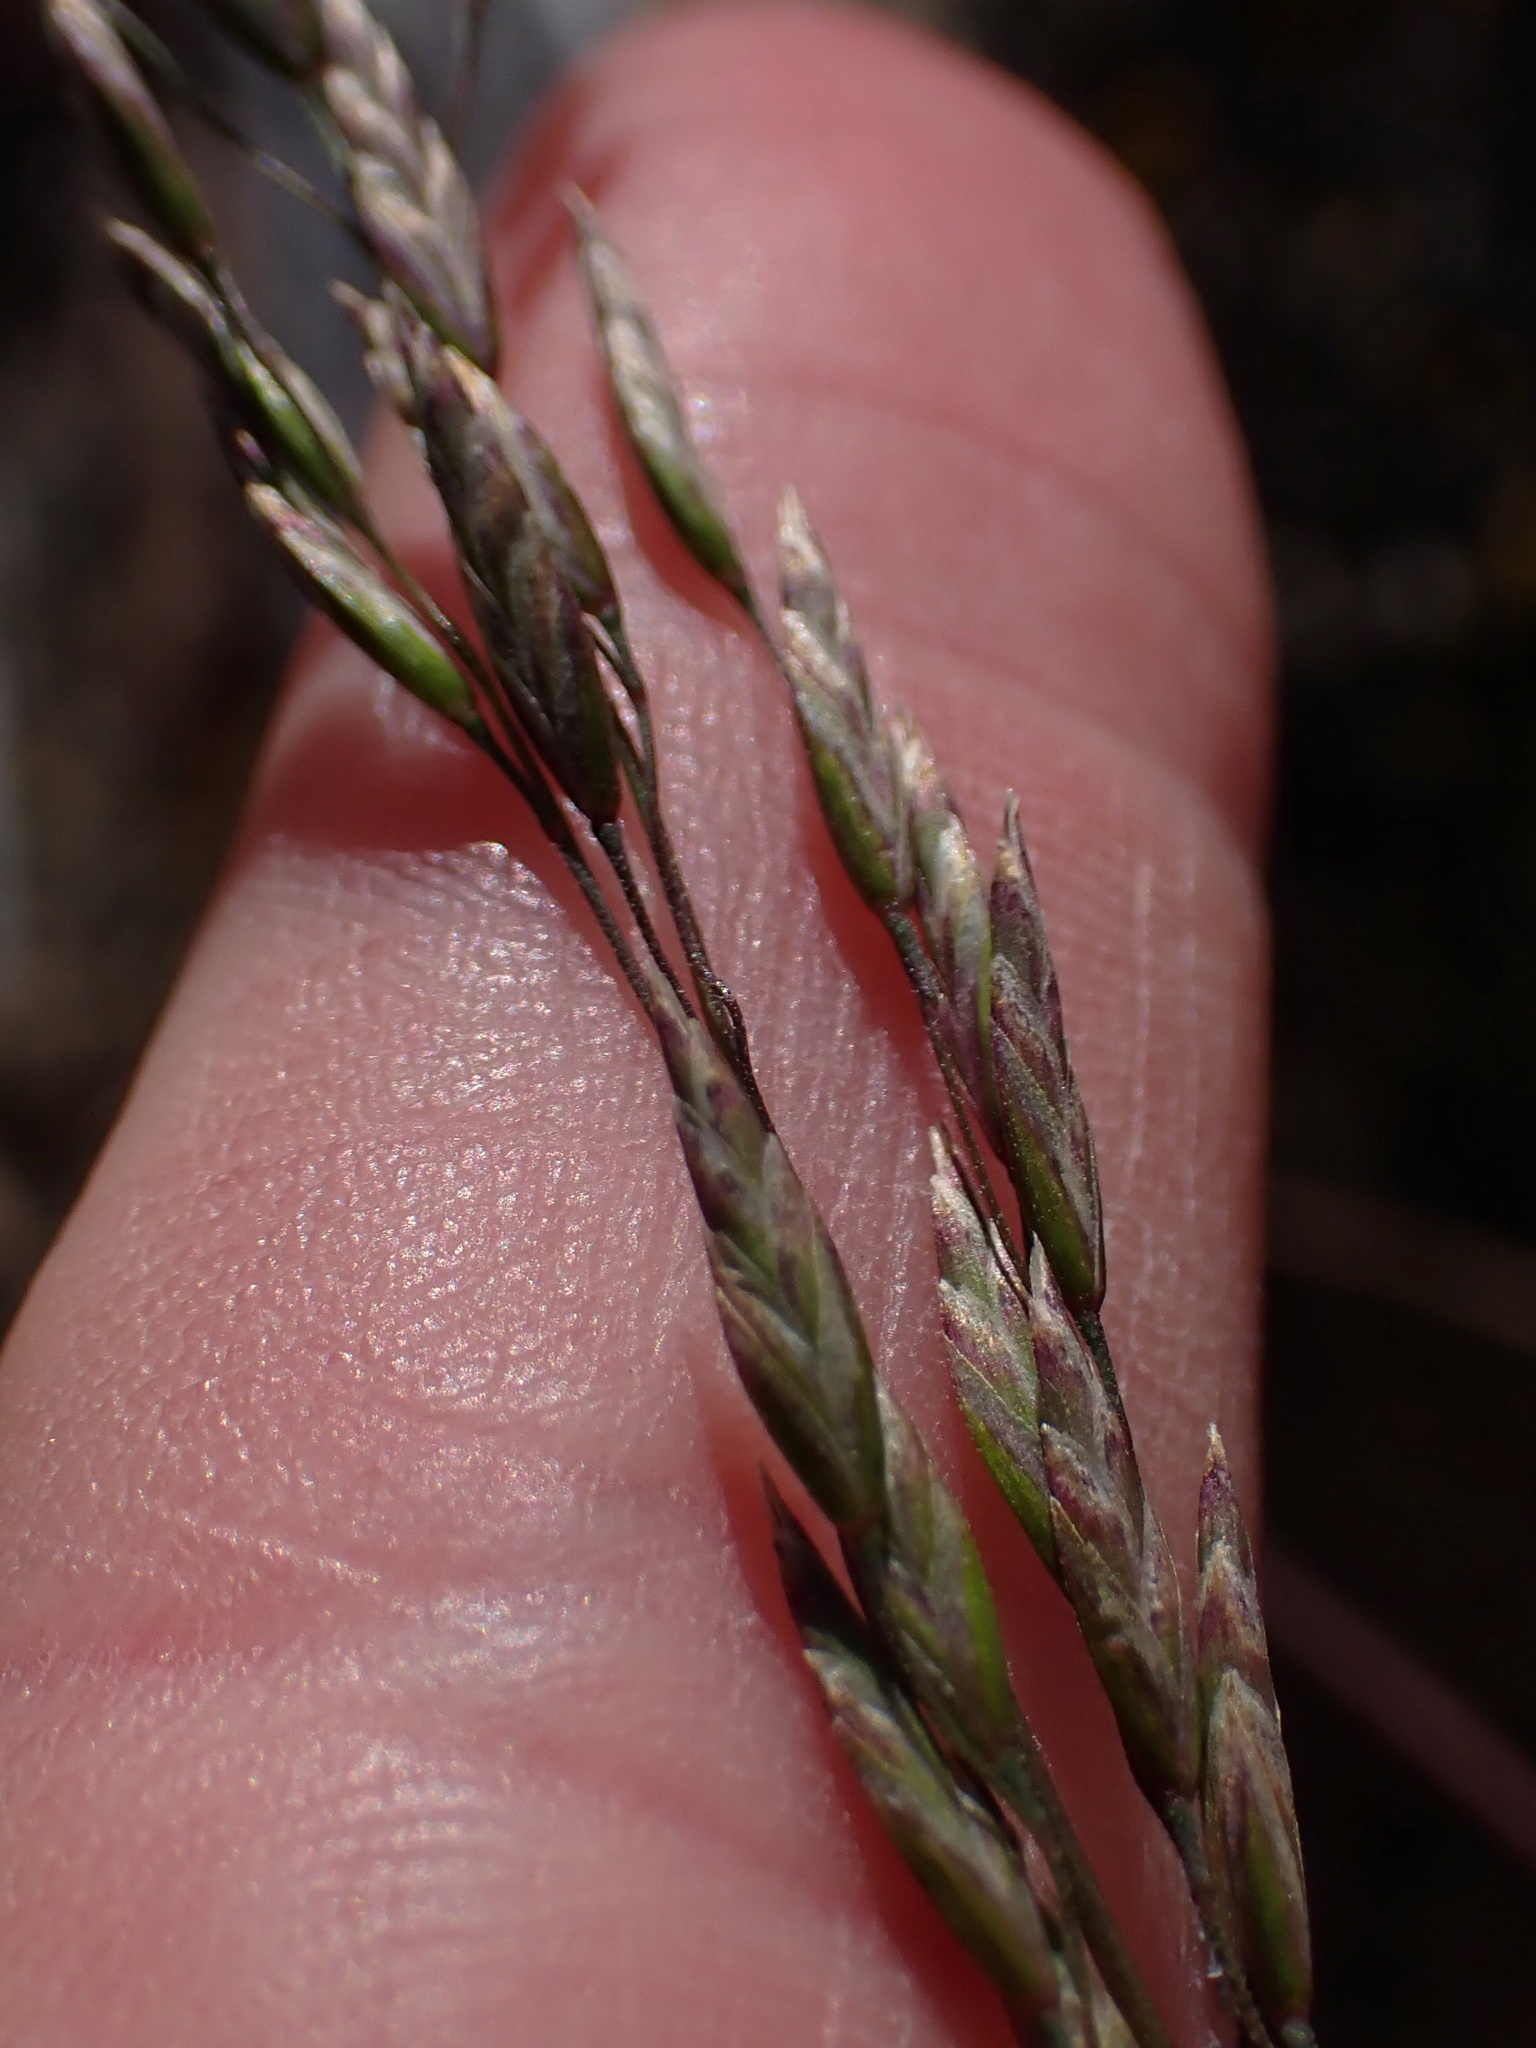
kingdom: Plantae
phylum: Tracheophyta
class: Liliopsida
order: Poales
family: Poaceae
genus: Poa
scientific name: Poa secunda
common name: Sandberg bluegrass
